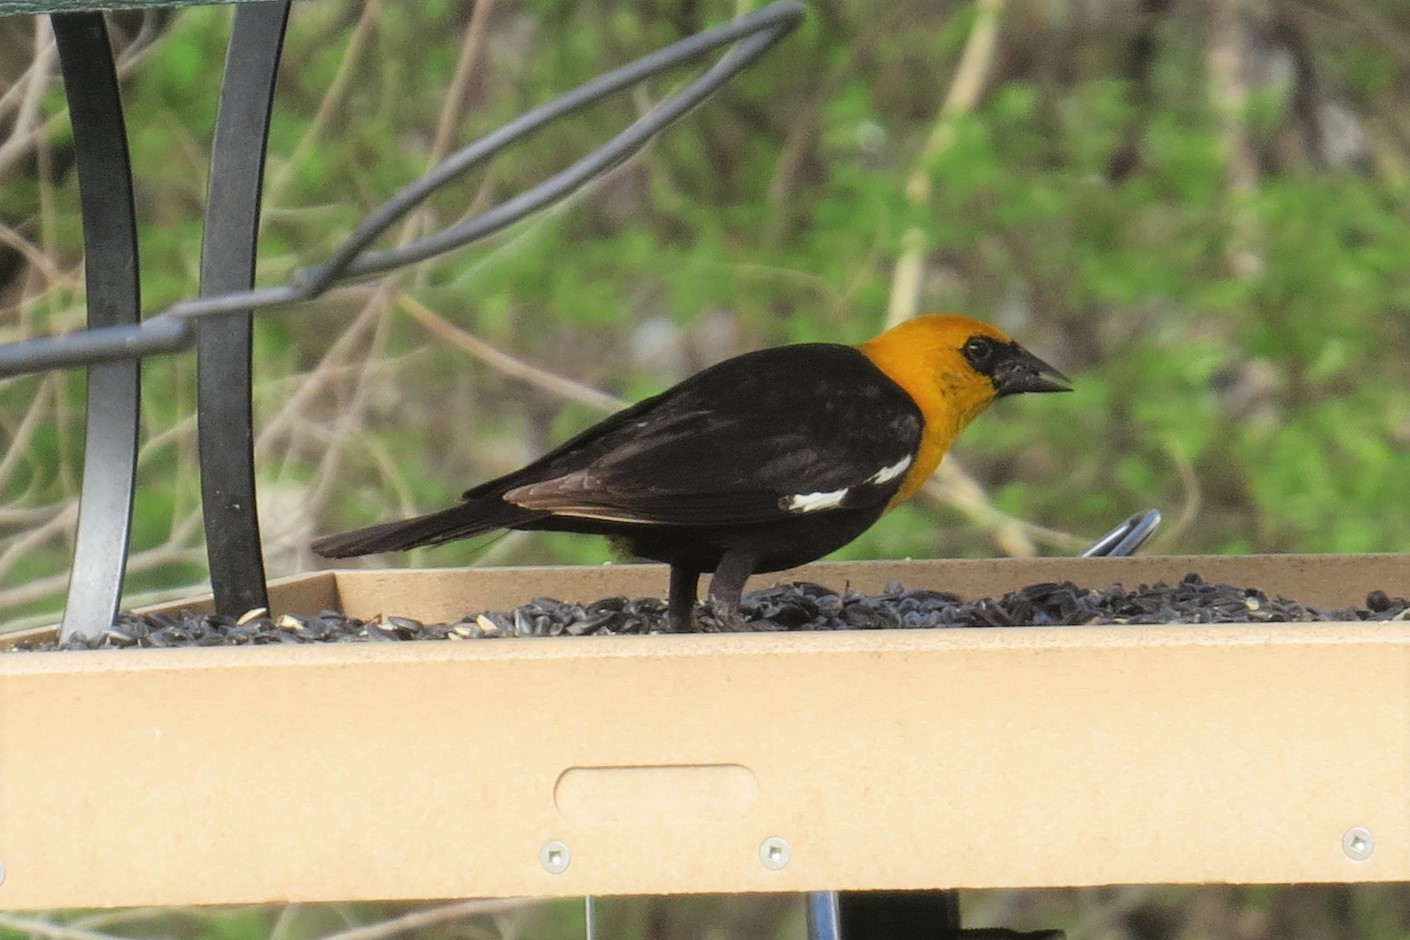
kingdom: Animalia
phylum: Chordata
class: Aves
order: Passeriformes
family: Icteridae
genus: Xanthocephalus
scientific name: Xanthocephalus xanthocephalus
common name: Yellow-headed blackbird
